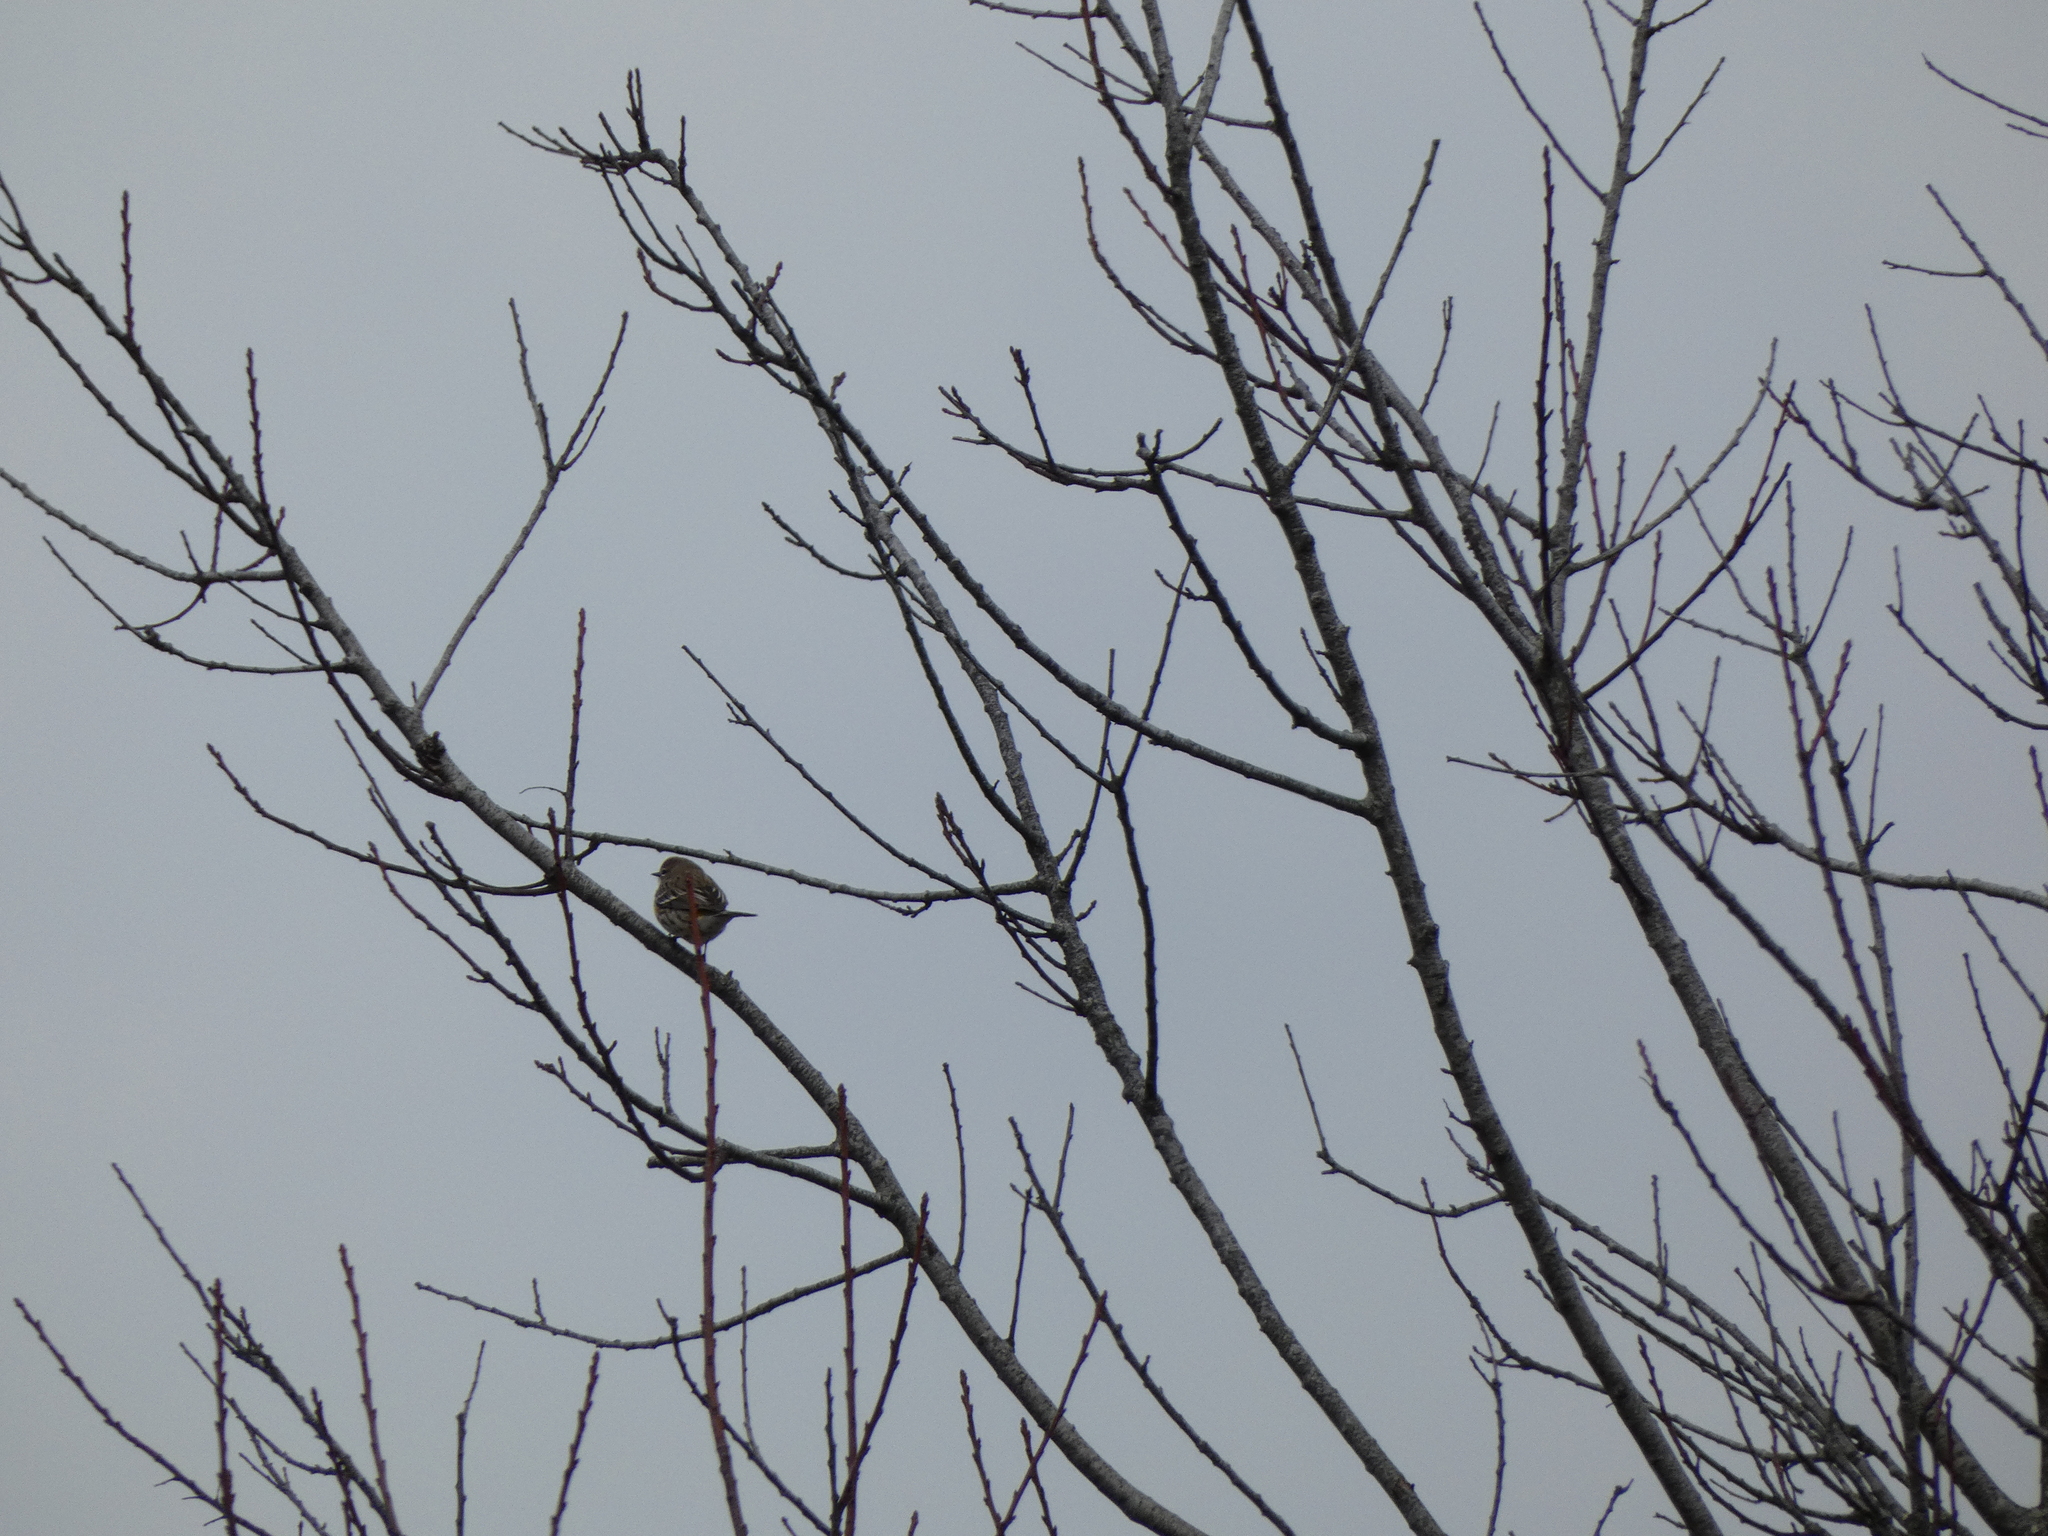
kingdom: Animalia
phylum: Chordata
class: Aves
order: Passeriformes
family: Parulidae
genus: Setophaga
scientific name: Setophaga coronata
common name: Myrtle warbler
